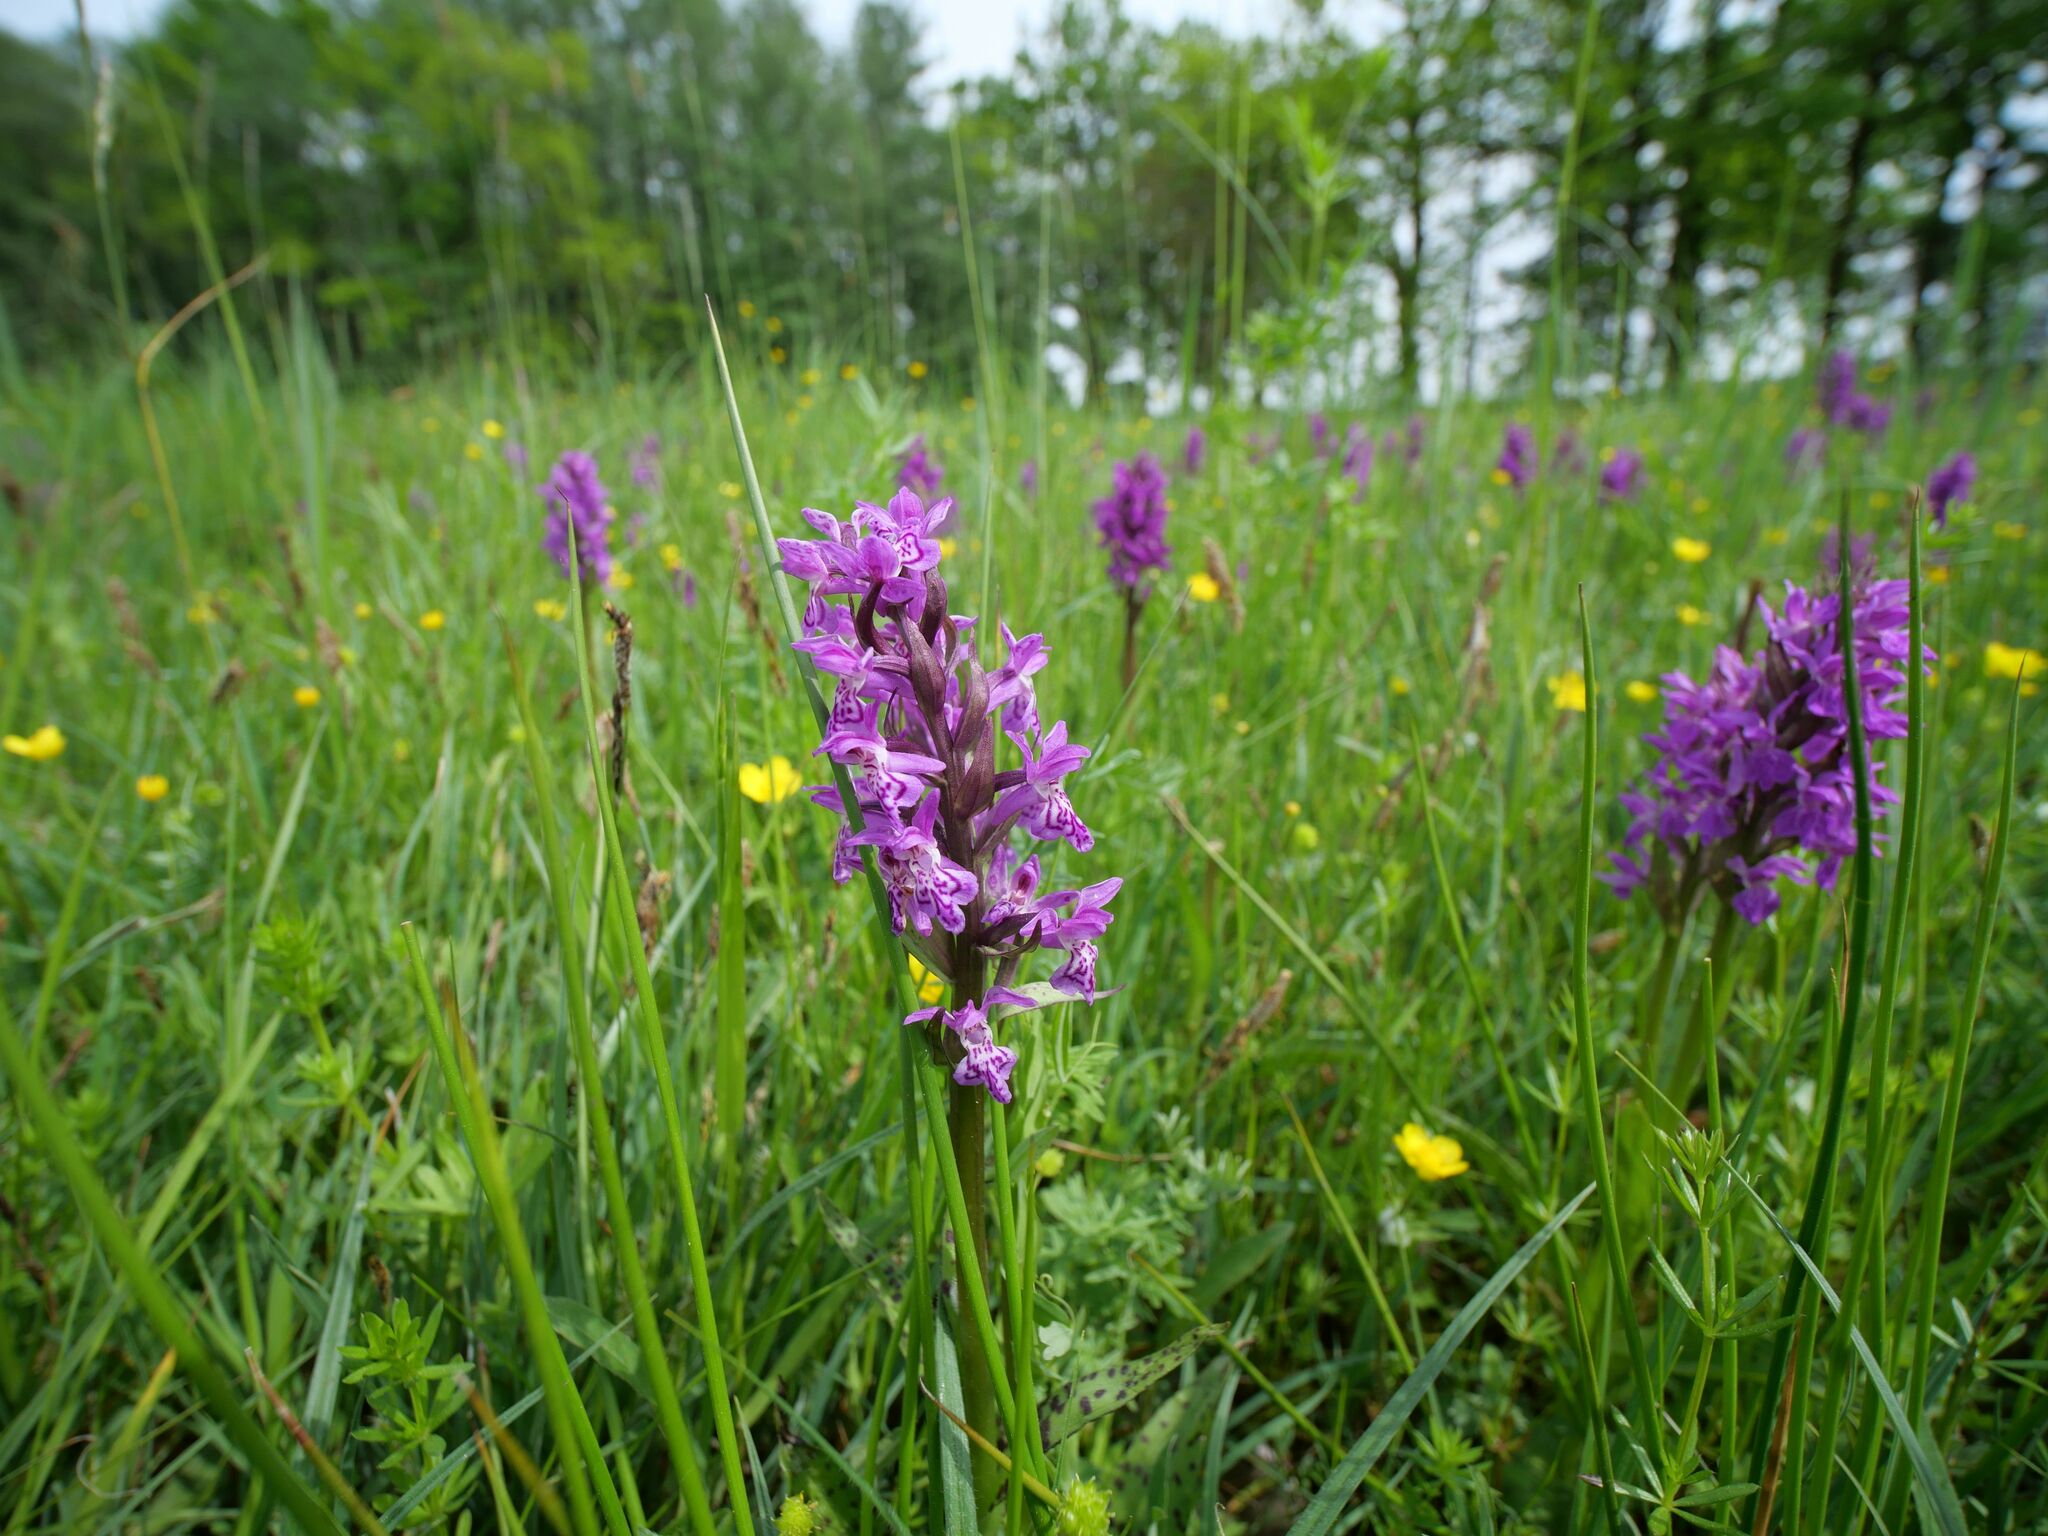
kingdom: Plantae
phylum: Tracheophyta
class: Liliopsida
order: Asparagales
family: Orchidaceae
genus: Dactylorhiza
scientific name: Dactylorhiza majalis
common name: Marsh orchid
